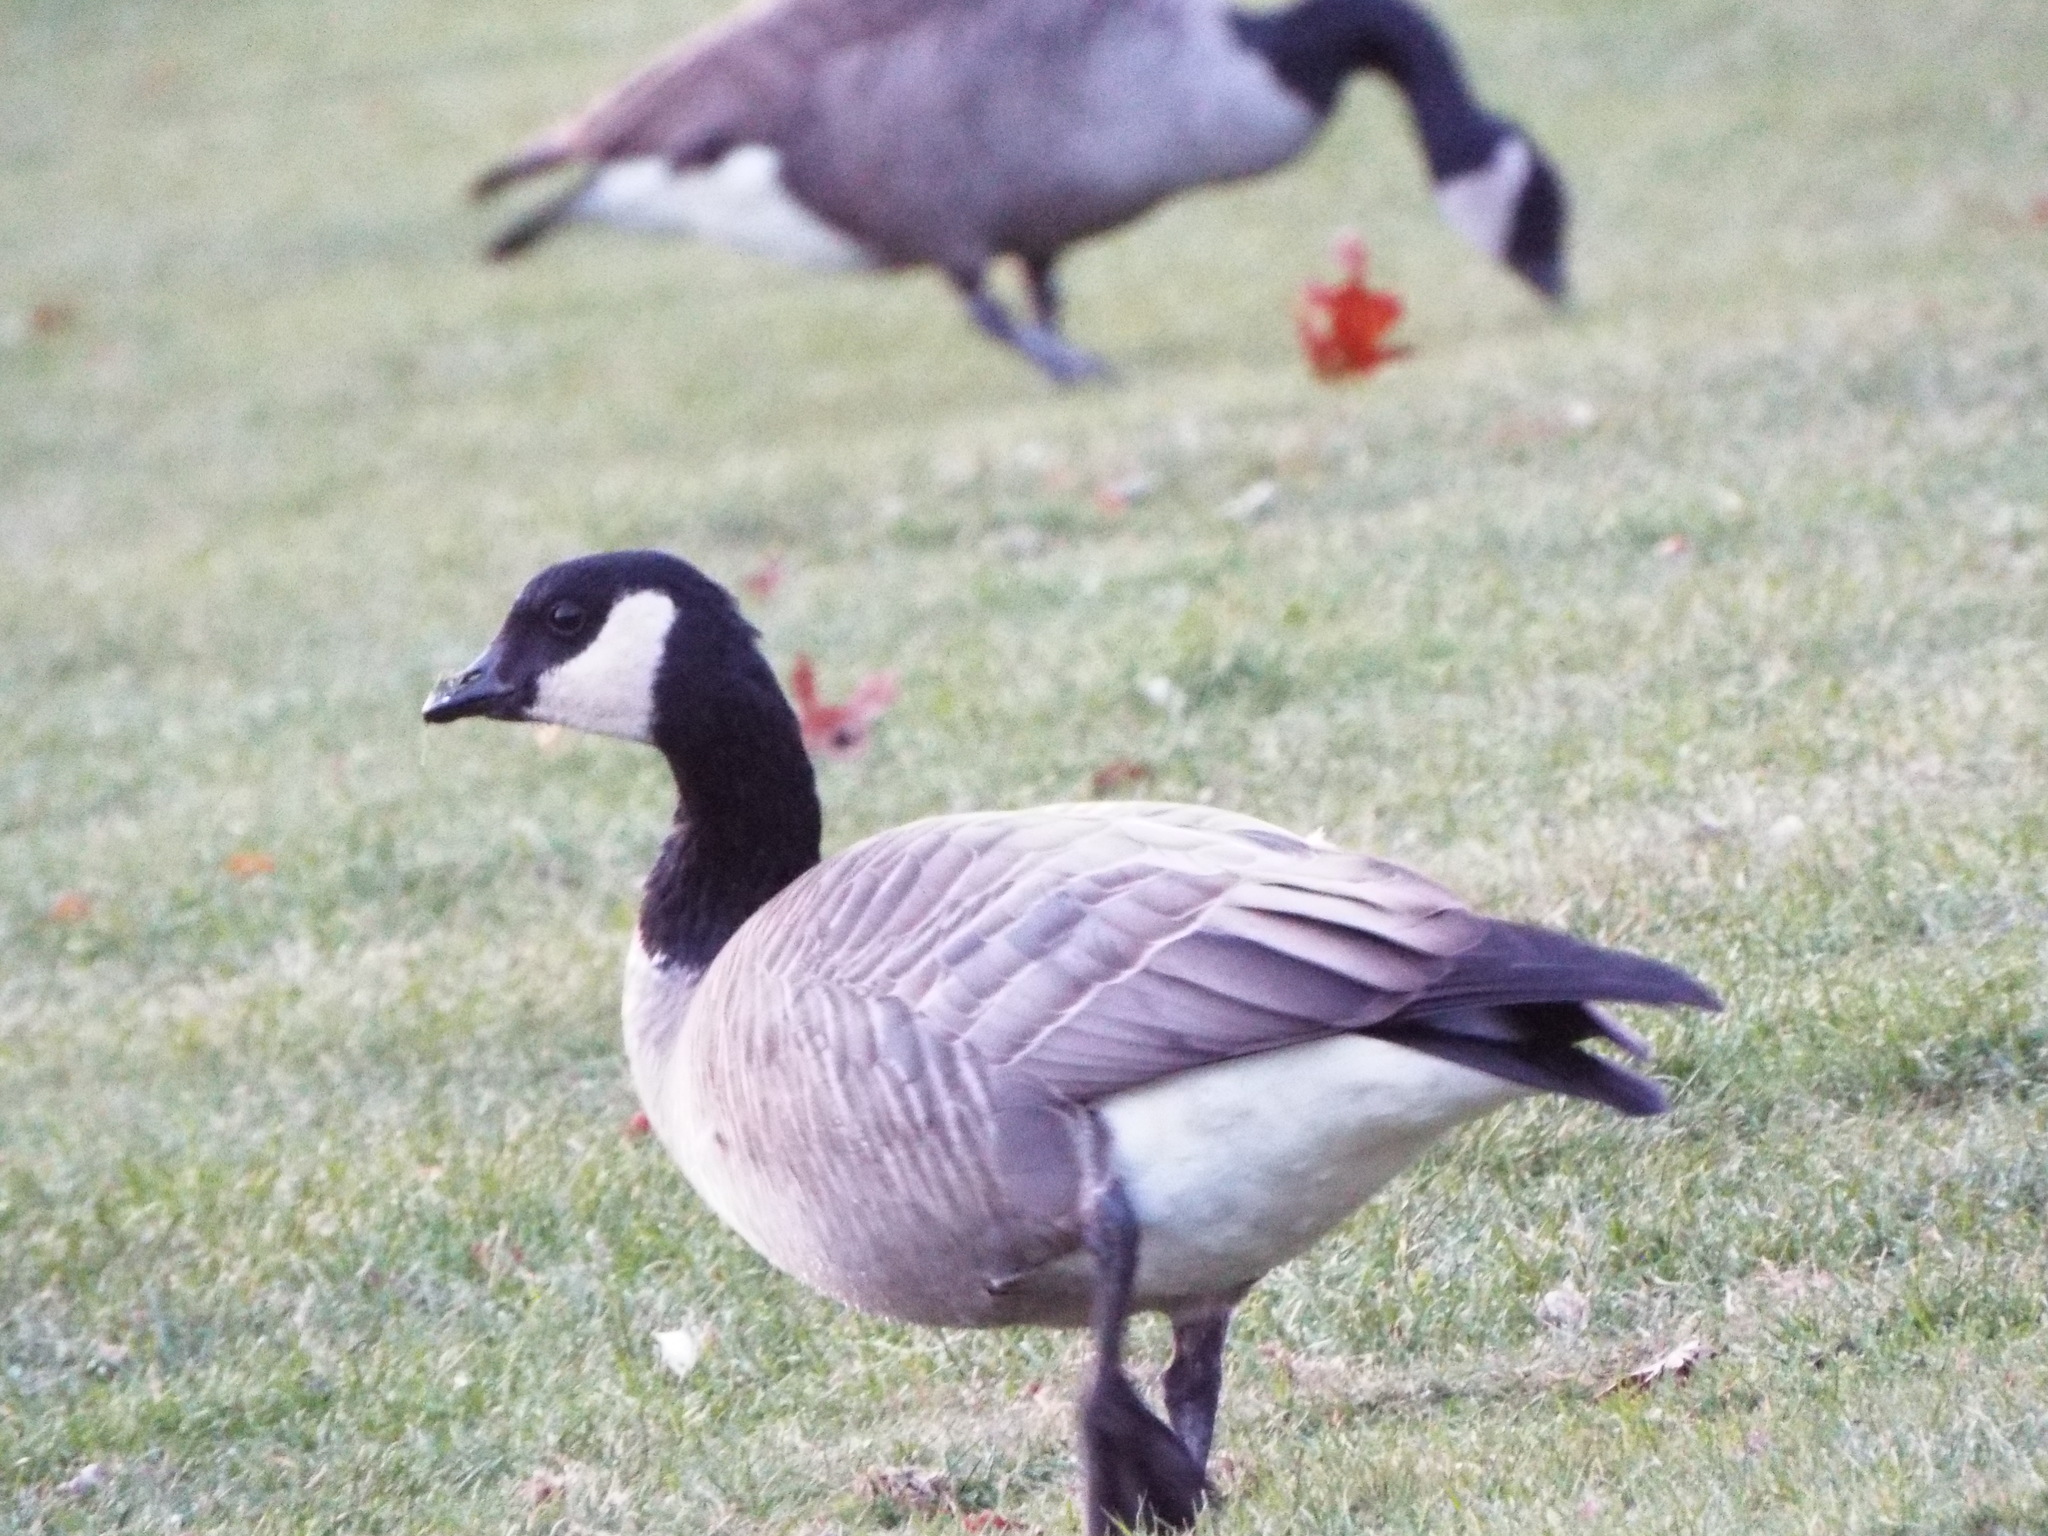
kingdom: Animalia
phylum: Chordata
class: Aves
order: Anseriformes
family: Anatidae
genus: Branta
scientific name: Branta hutchinsii
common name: Cackling goose
